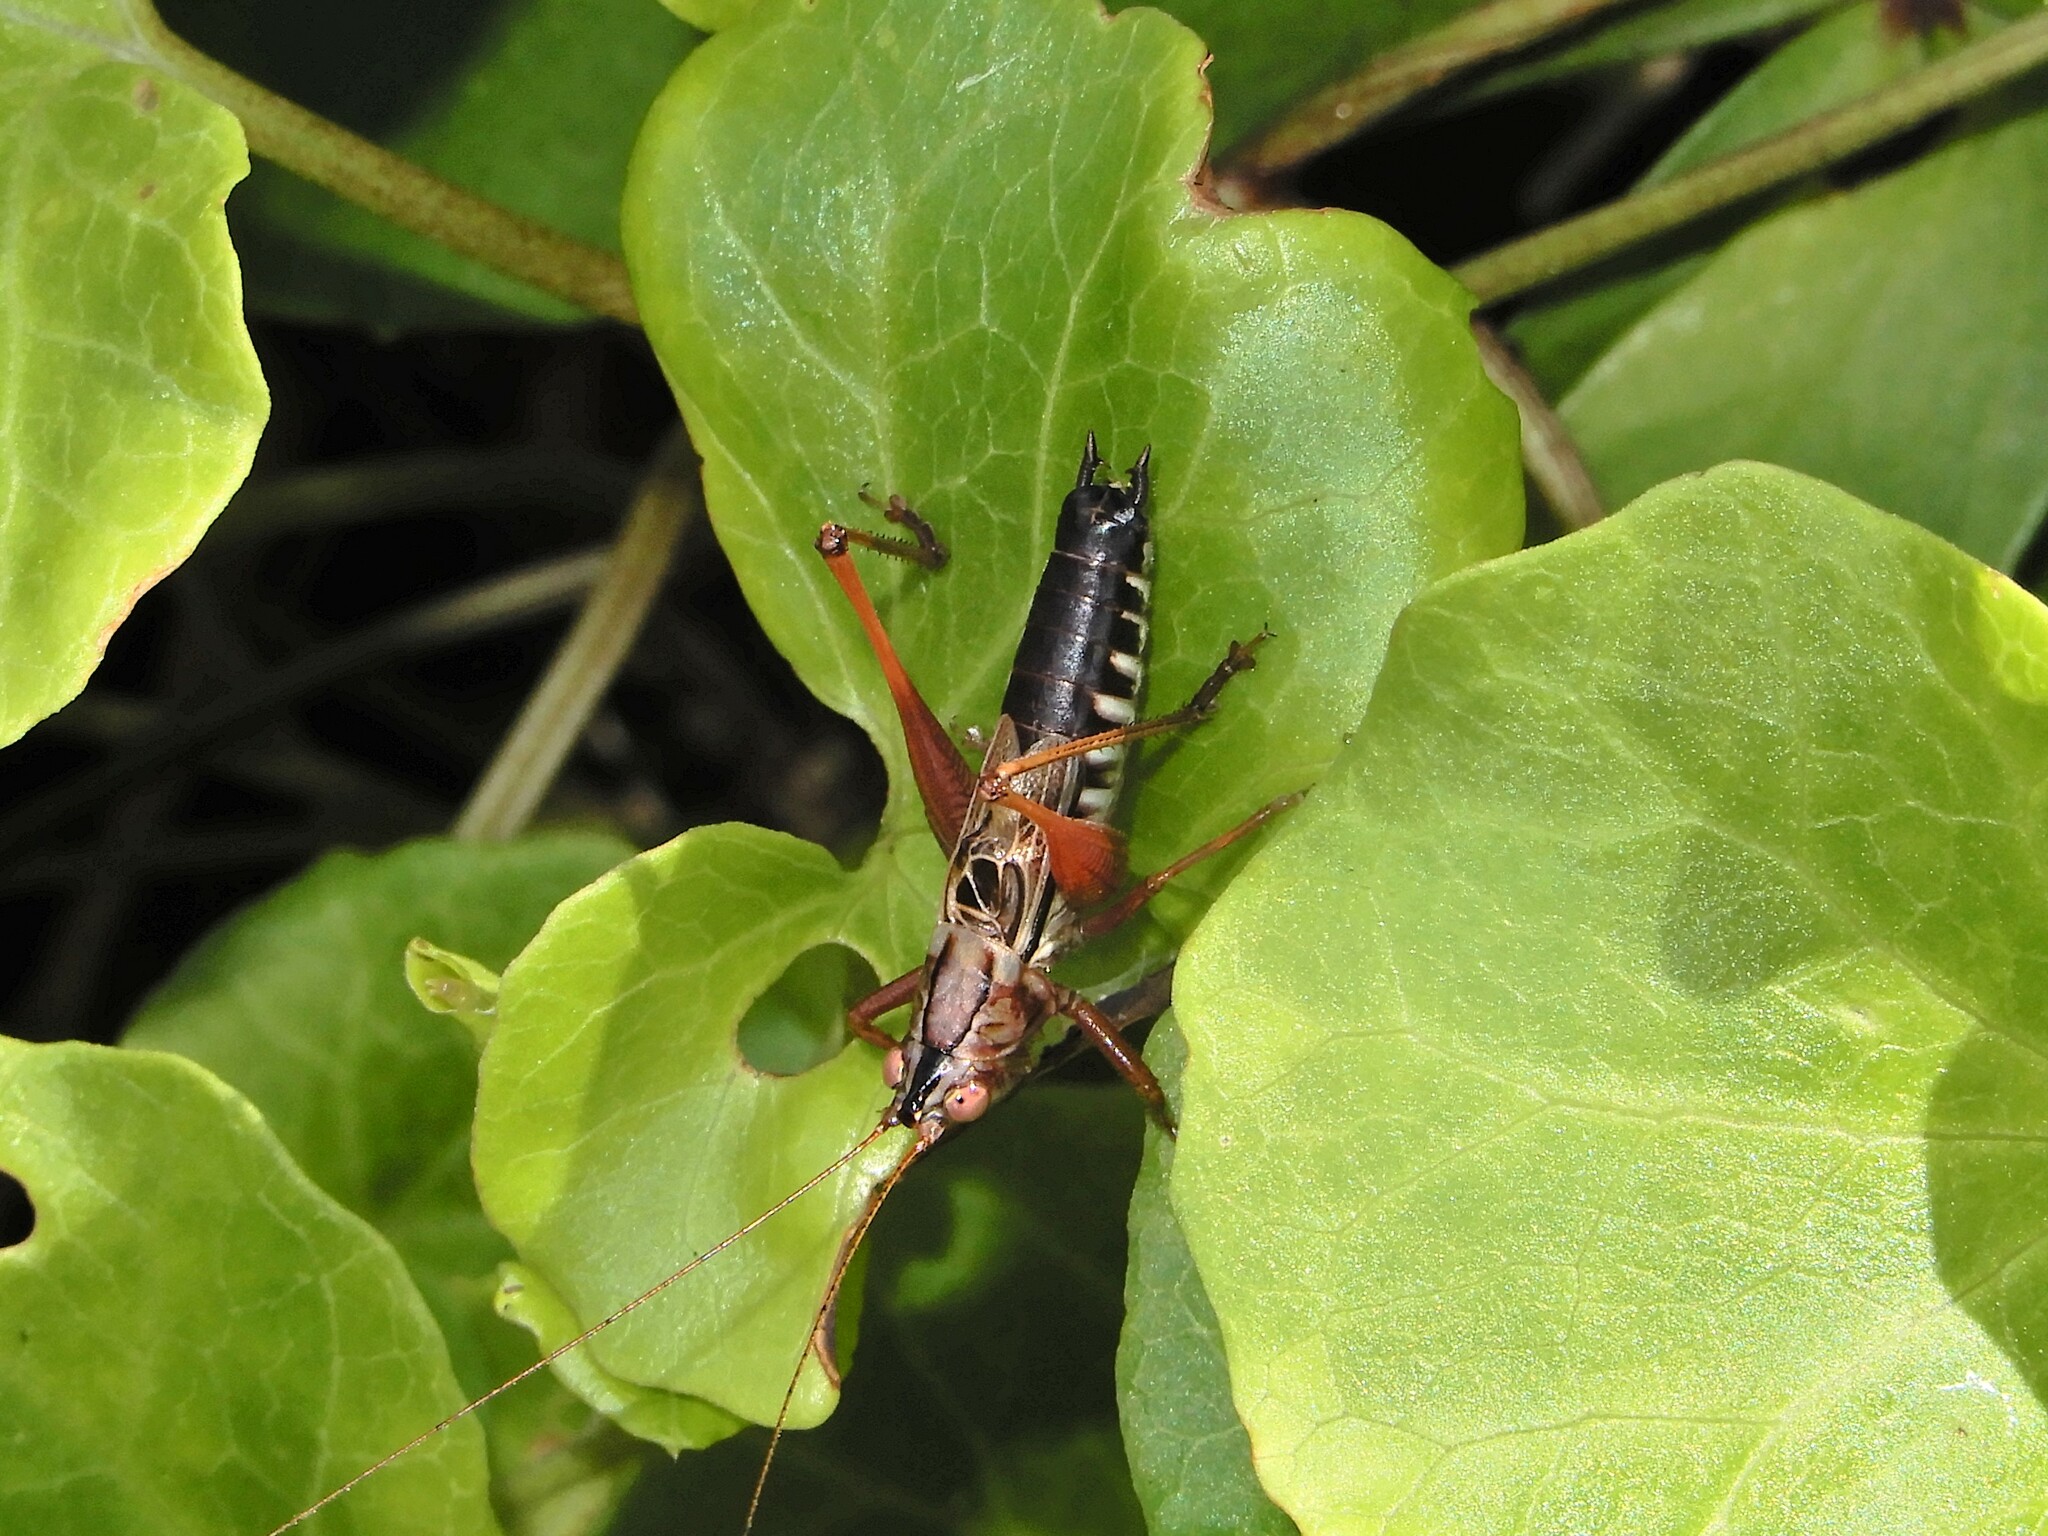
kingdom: Animalia
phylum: Arthropoda
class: Insecta
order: Orthoptera
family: Tettigoniidae
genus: Conocephalus
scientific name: Conocephalus semivittatus
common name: Blackish meadow katydid
